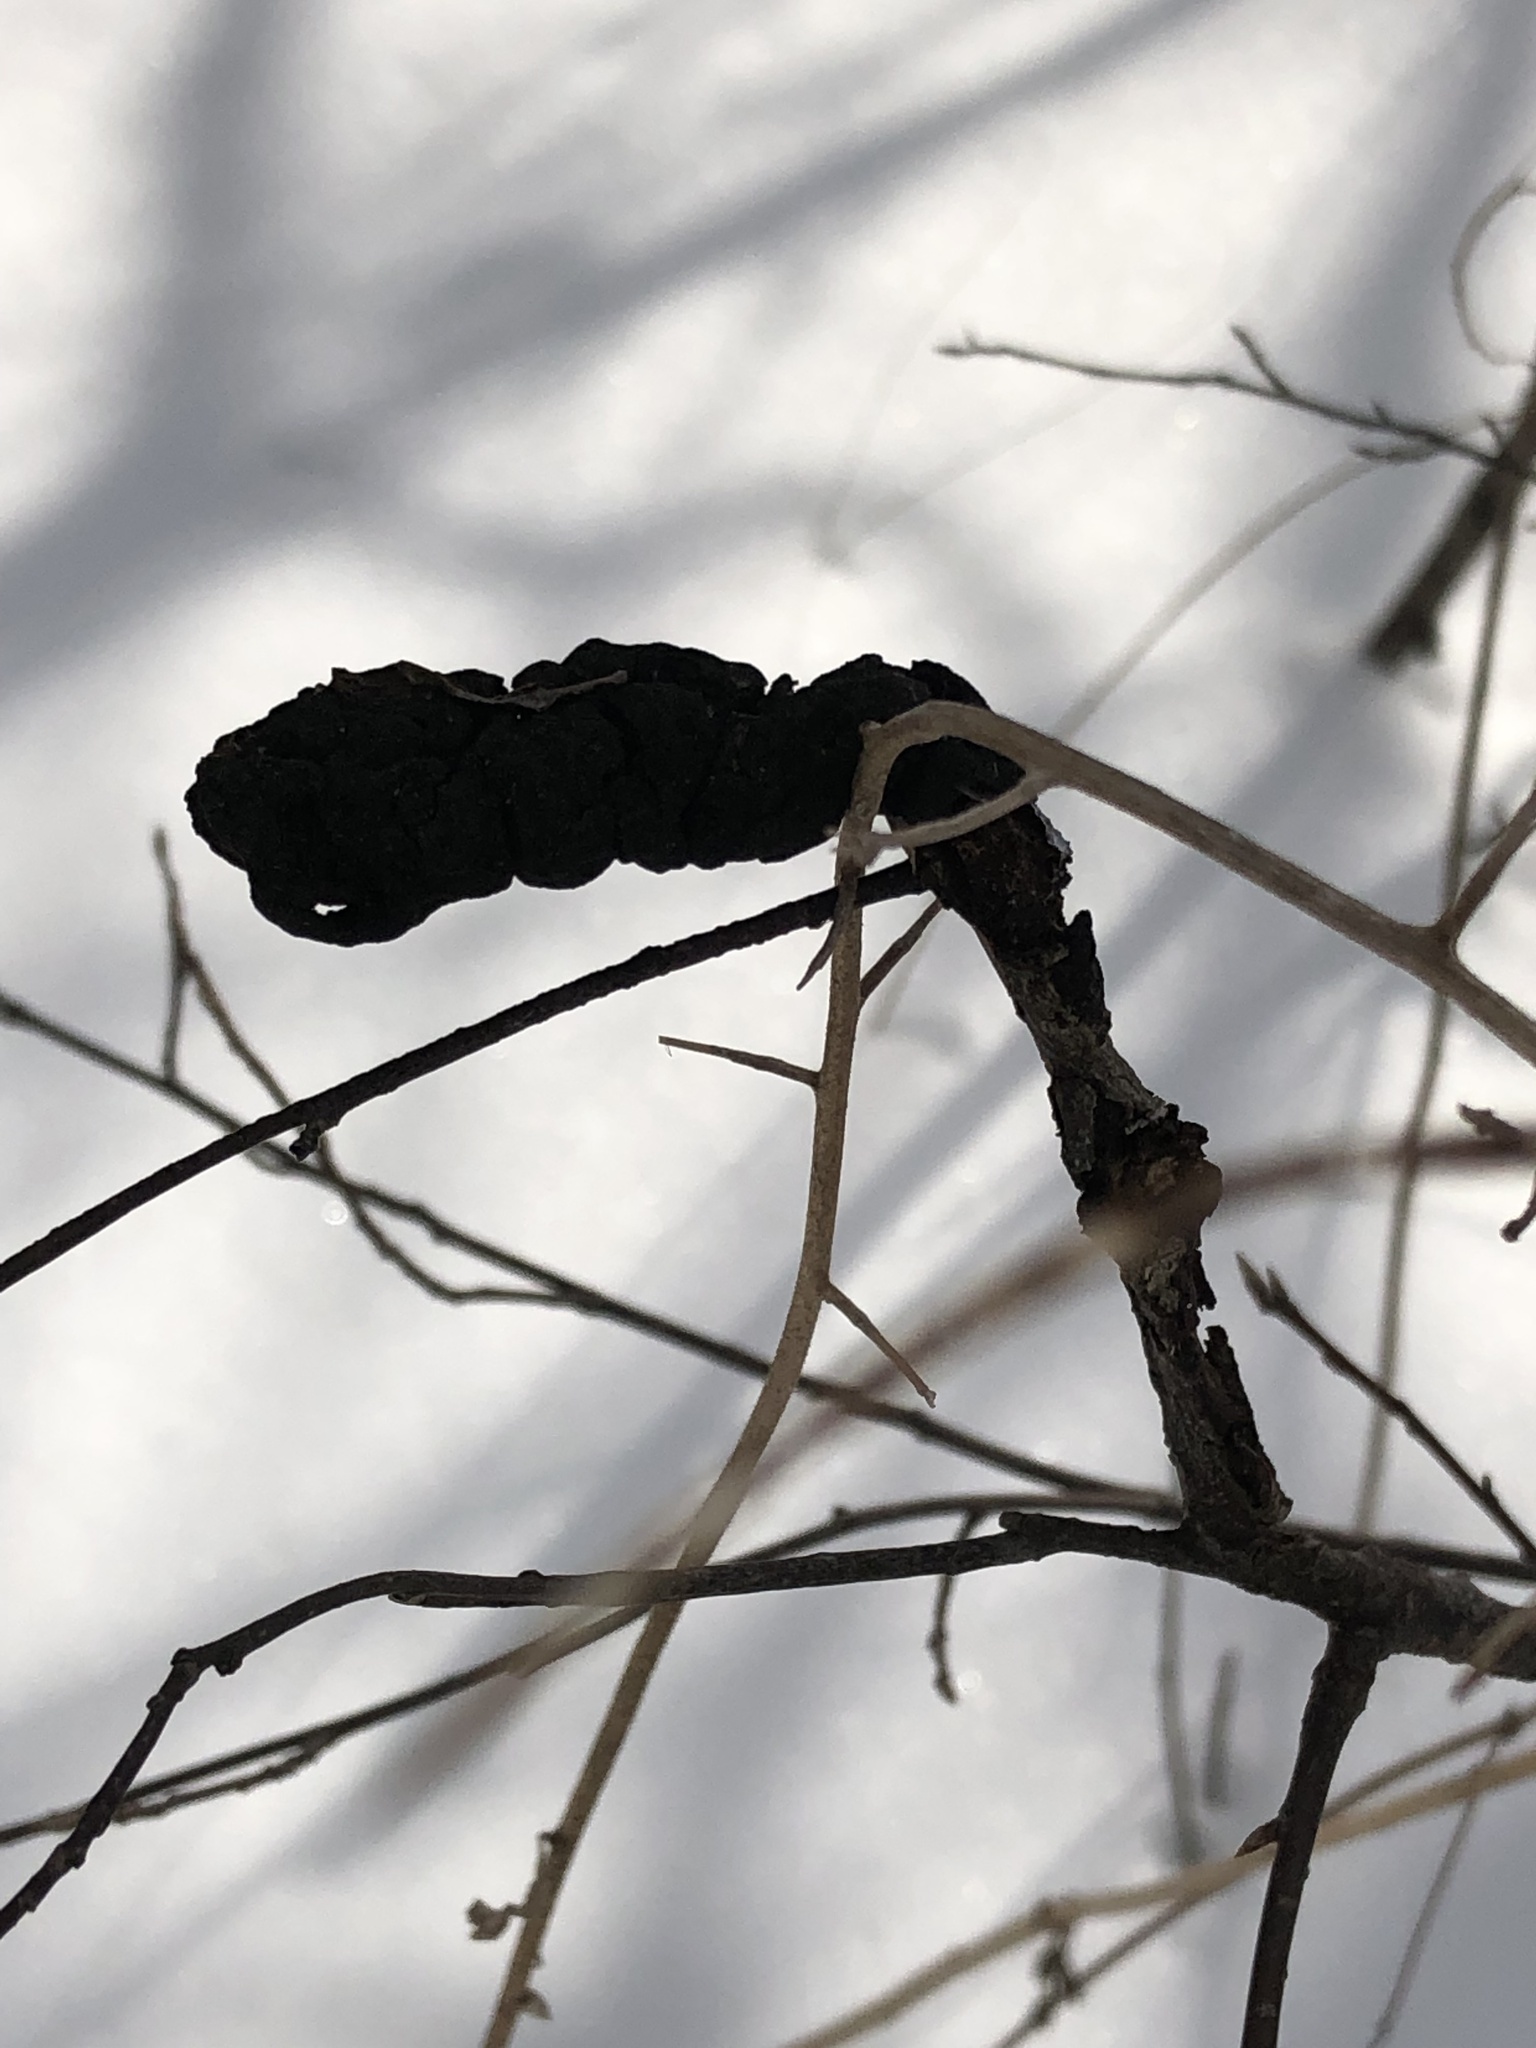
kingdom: Fungi
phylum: Ascomycota
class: Dothideomycetes
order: Venturiales
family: Venturiaceae
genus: Apiosporina
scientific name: Apiosporina morbosa
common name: Black knot
